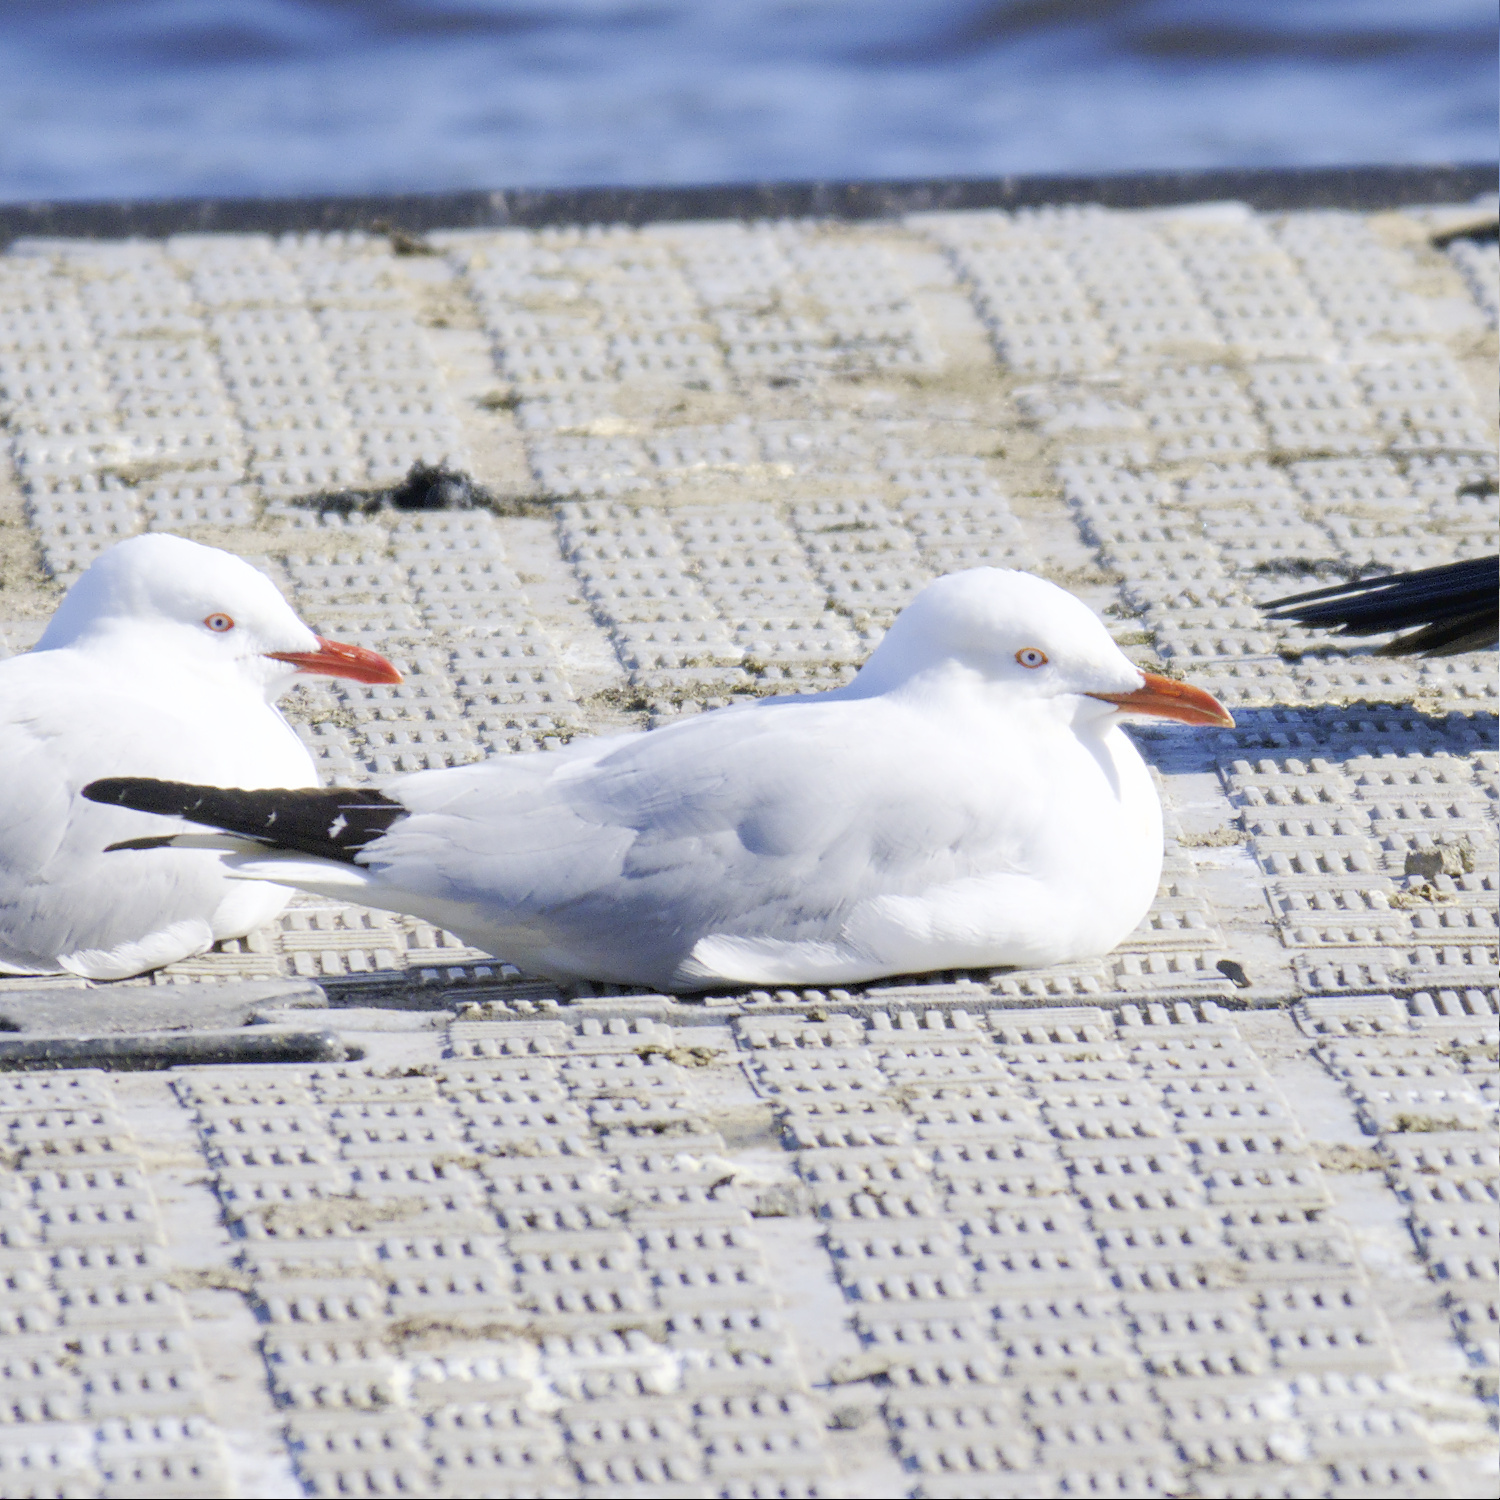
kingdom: Animalia
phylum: Chordata
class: Aves
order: Charadriiformes
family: Laridae
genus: Chroicocephalus
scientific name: Chroicocephalus novaehollandiae
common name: Silver gull
